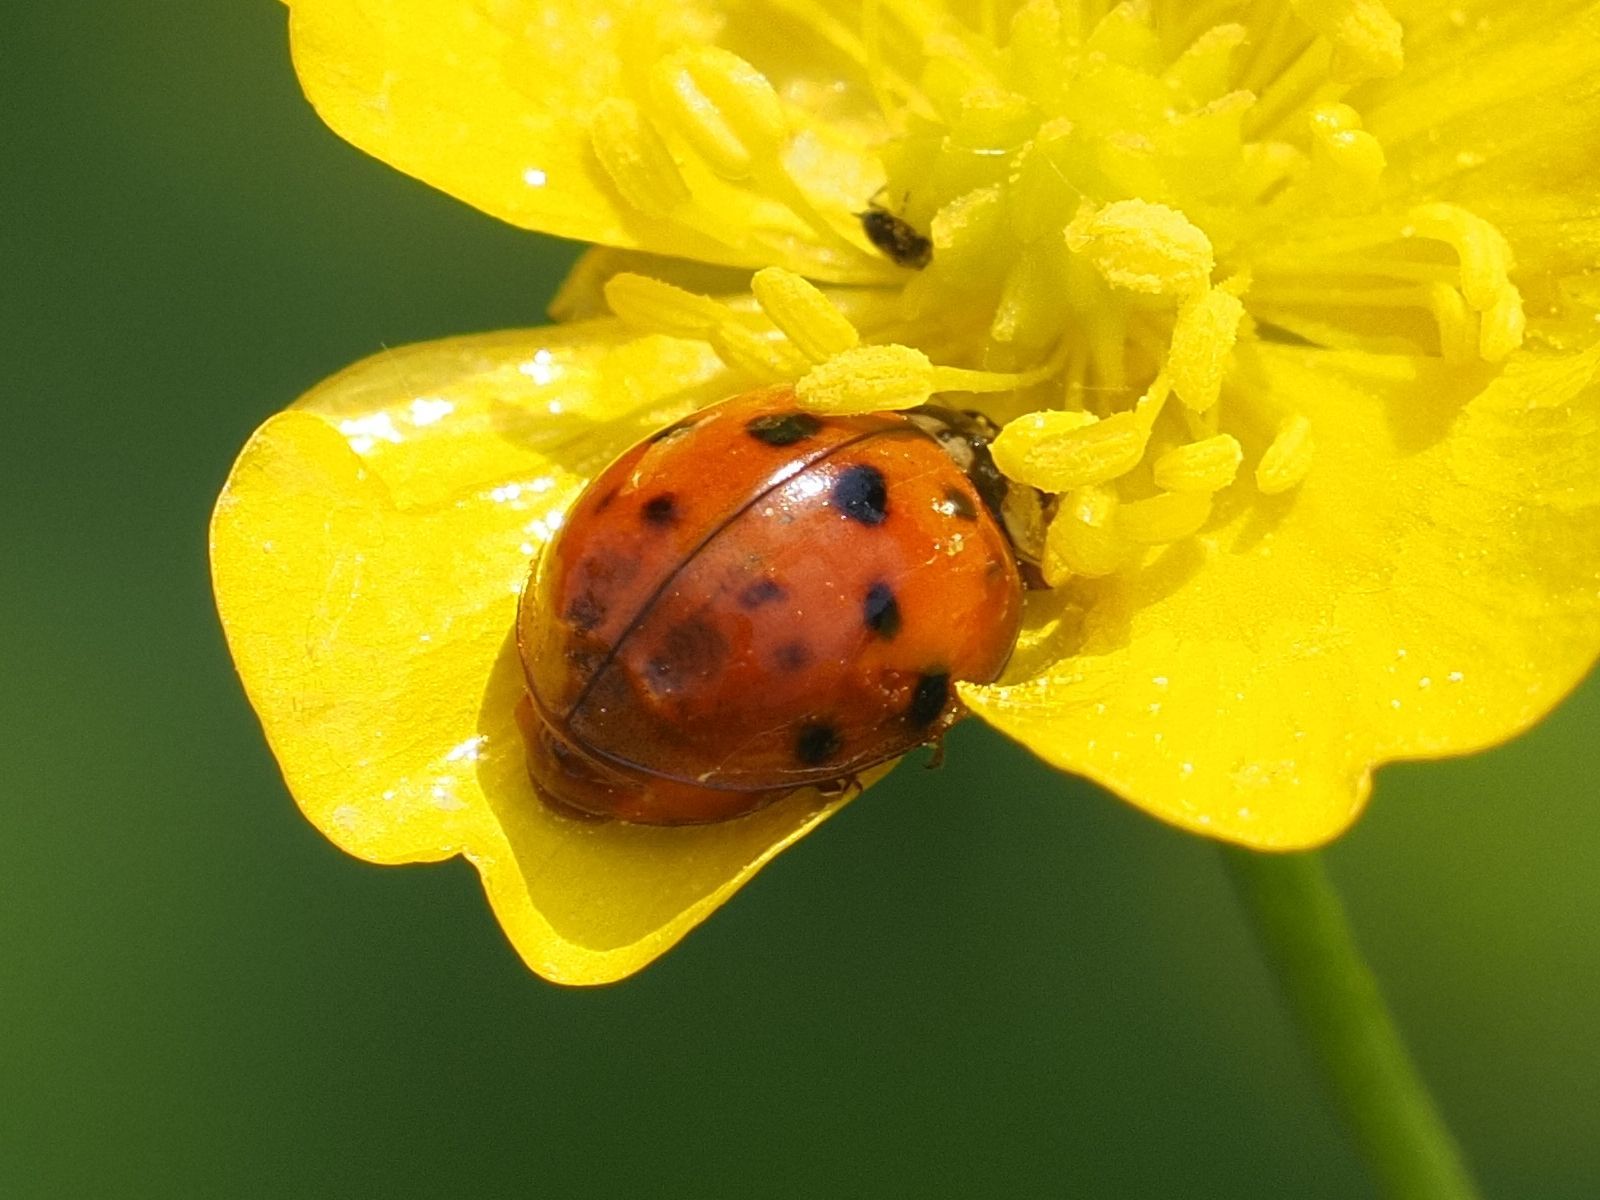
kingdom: Animalia
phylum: Arthropoda
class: Insecta
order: Coleoptera
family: Coccinellidae
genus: Harmonia
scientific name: Harmonia axyridis
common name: Harlequin ladybird
